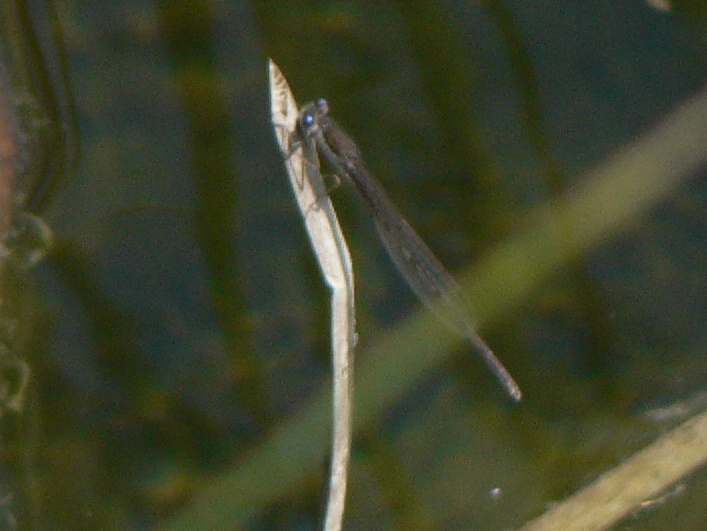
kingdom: Animalia
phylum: Arthropoda
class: Insecta
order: Odonata
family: Lestidae
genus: Sympecma
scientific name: Sympecma fusca
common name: Common winter damsel
